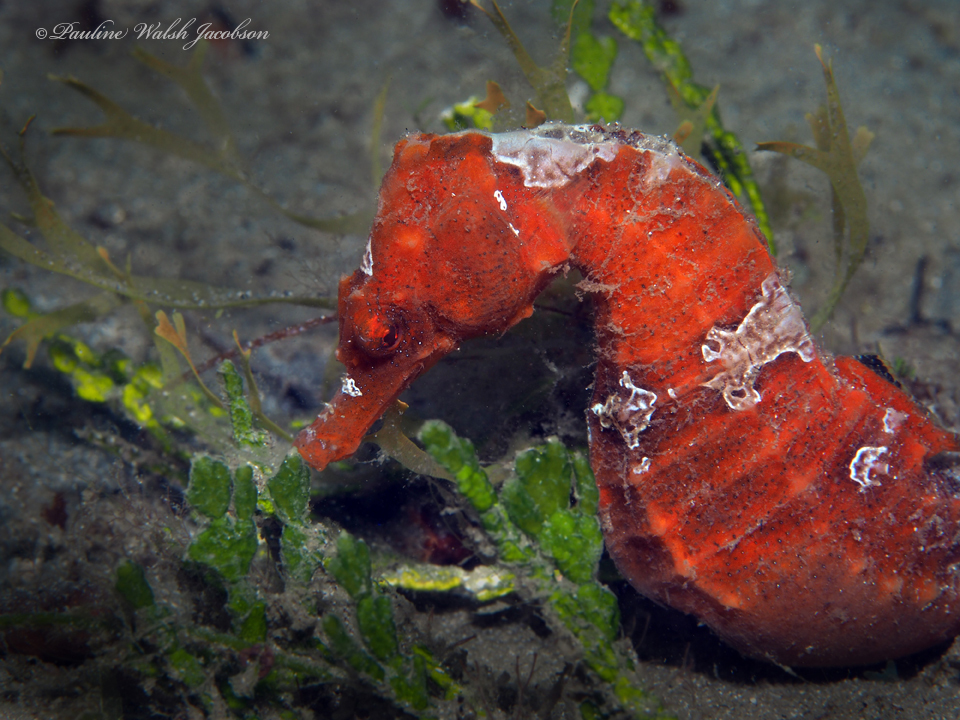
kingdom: Animalia
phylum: Chordata
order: Syngnathiformes
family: Syngnathidae
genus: Hippocampus
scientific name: Hippocampus erectus
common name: Lined seahorse
